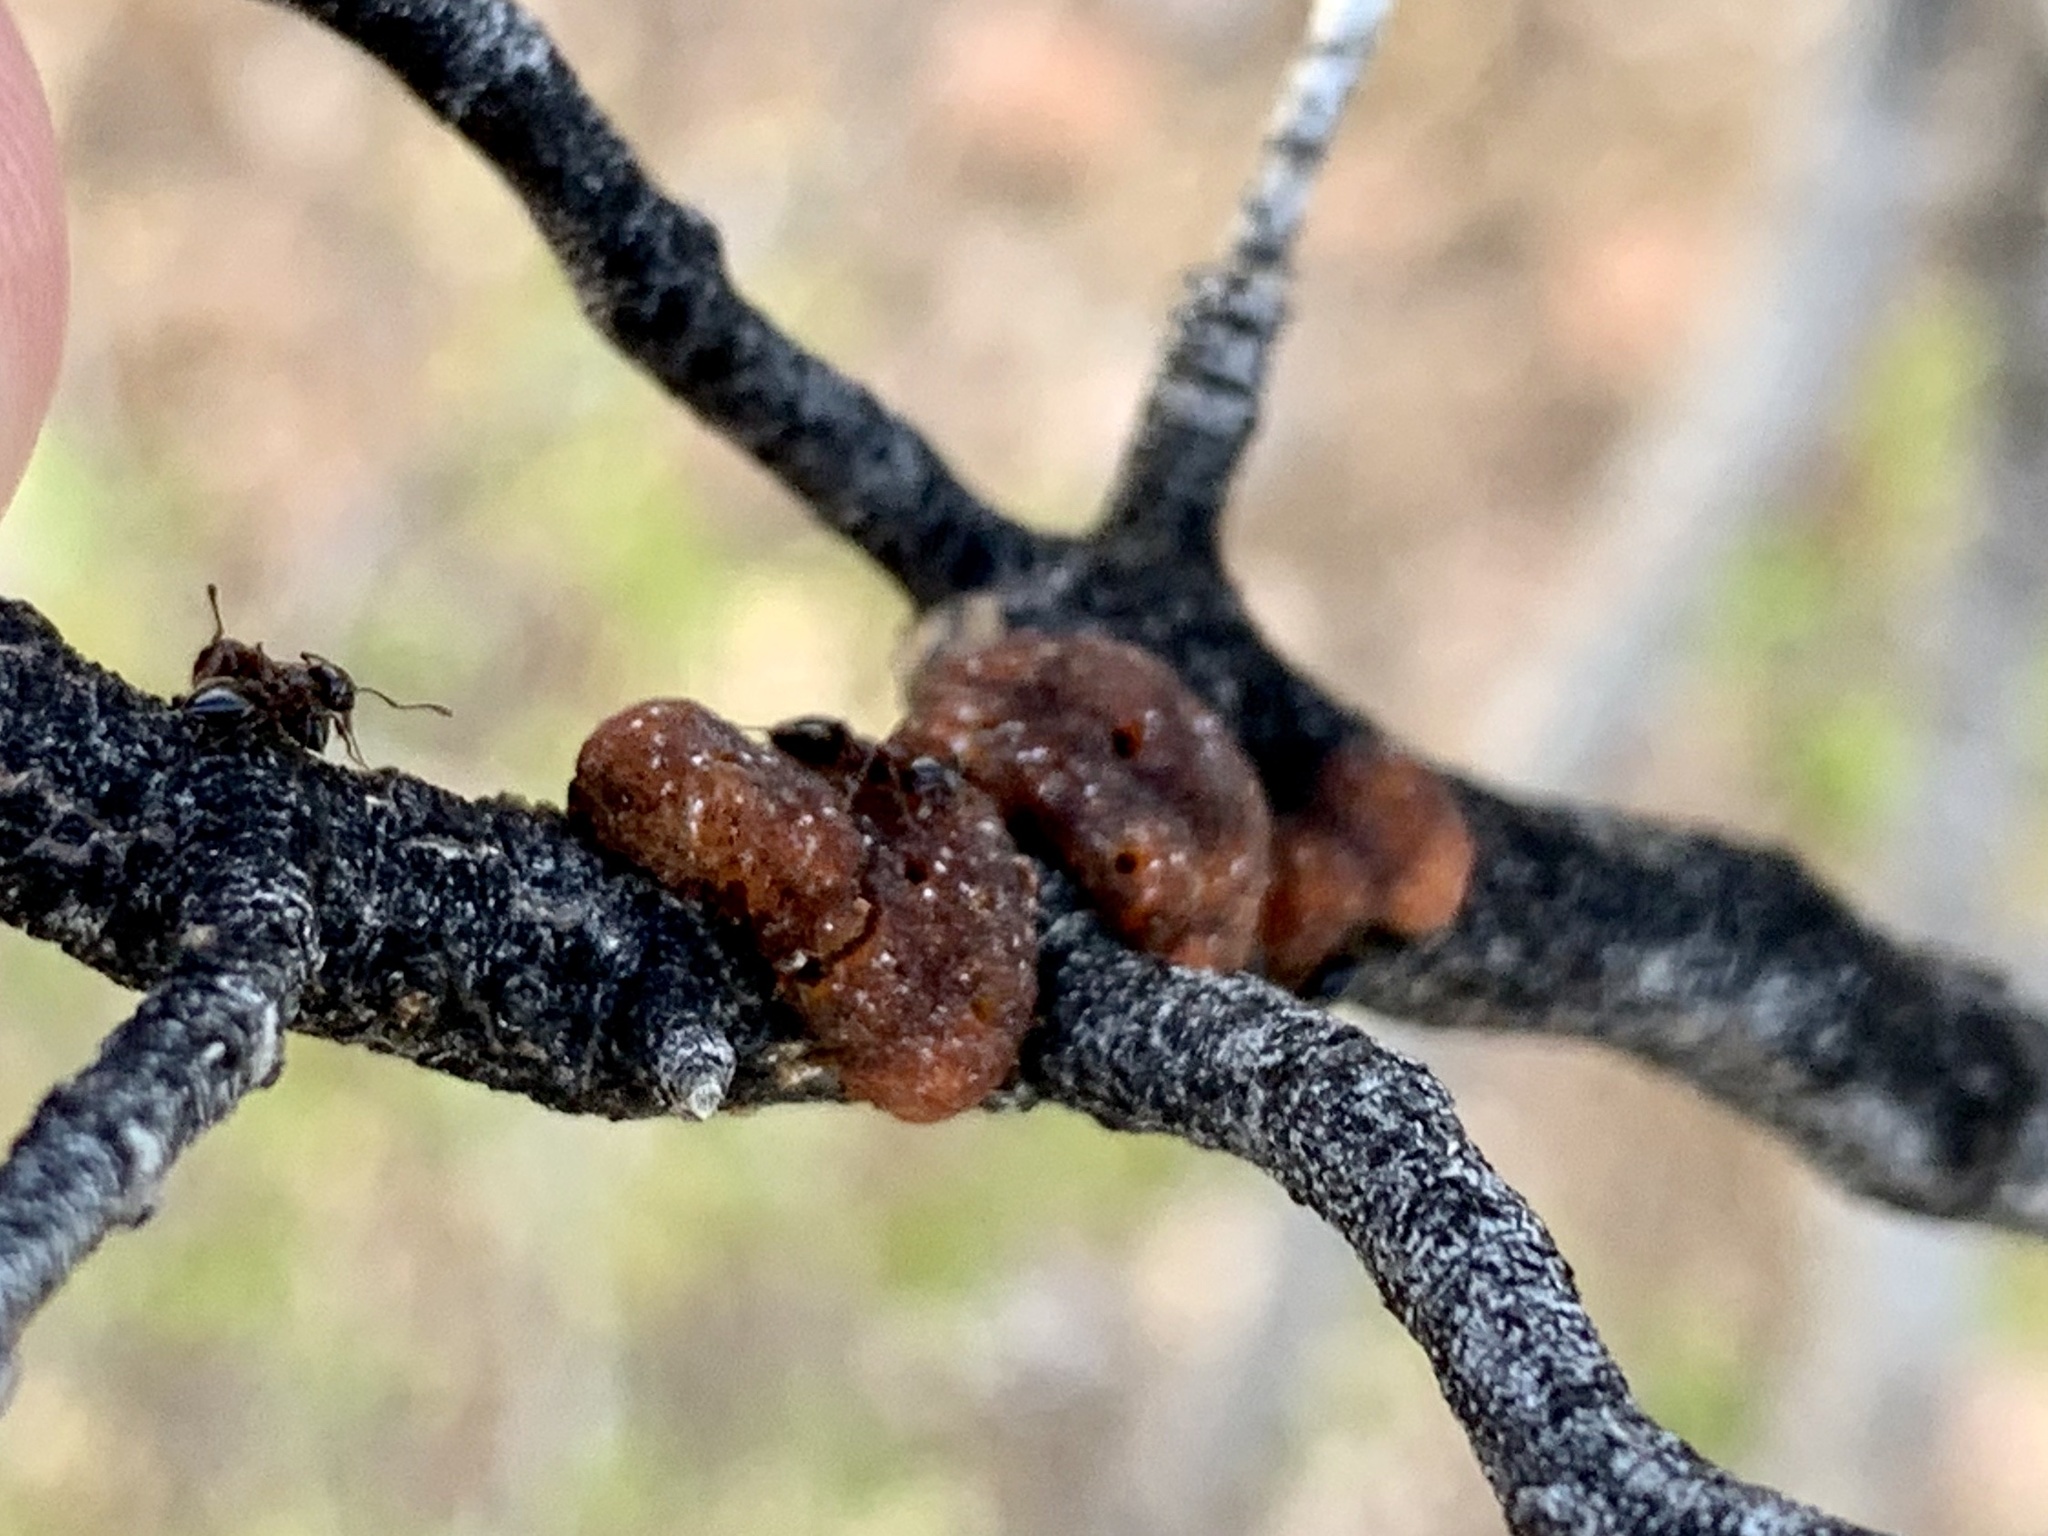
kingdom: Animalia
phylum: Arthropoda
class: Insecta
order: Hemiptera
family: Kerriidae
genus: Tachardiella
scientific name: Tachardiella larreae
